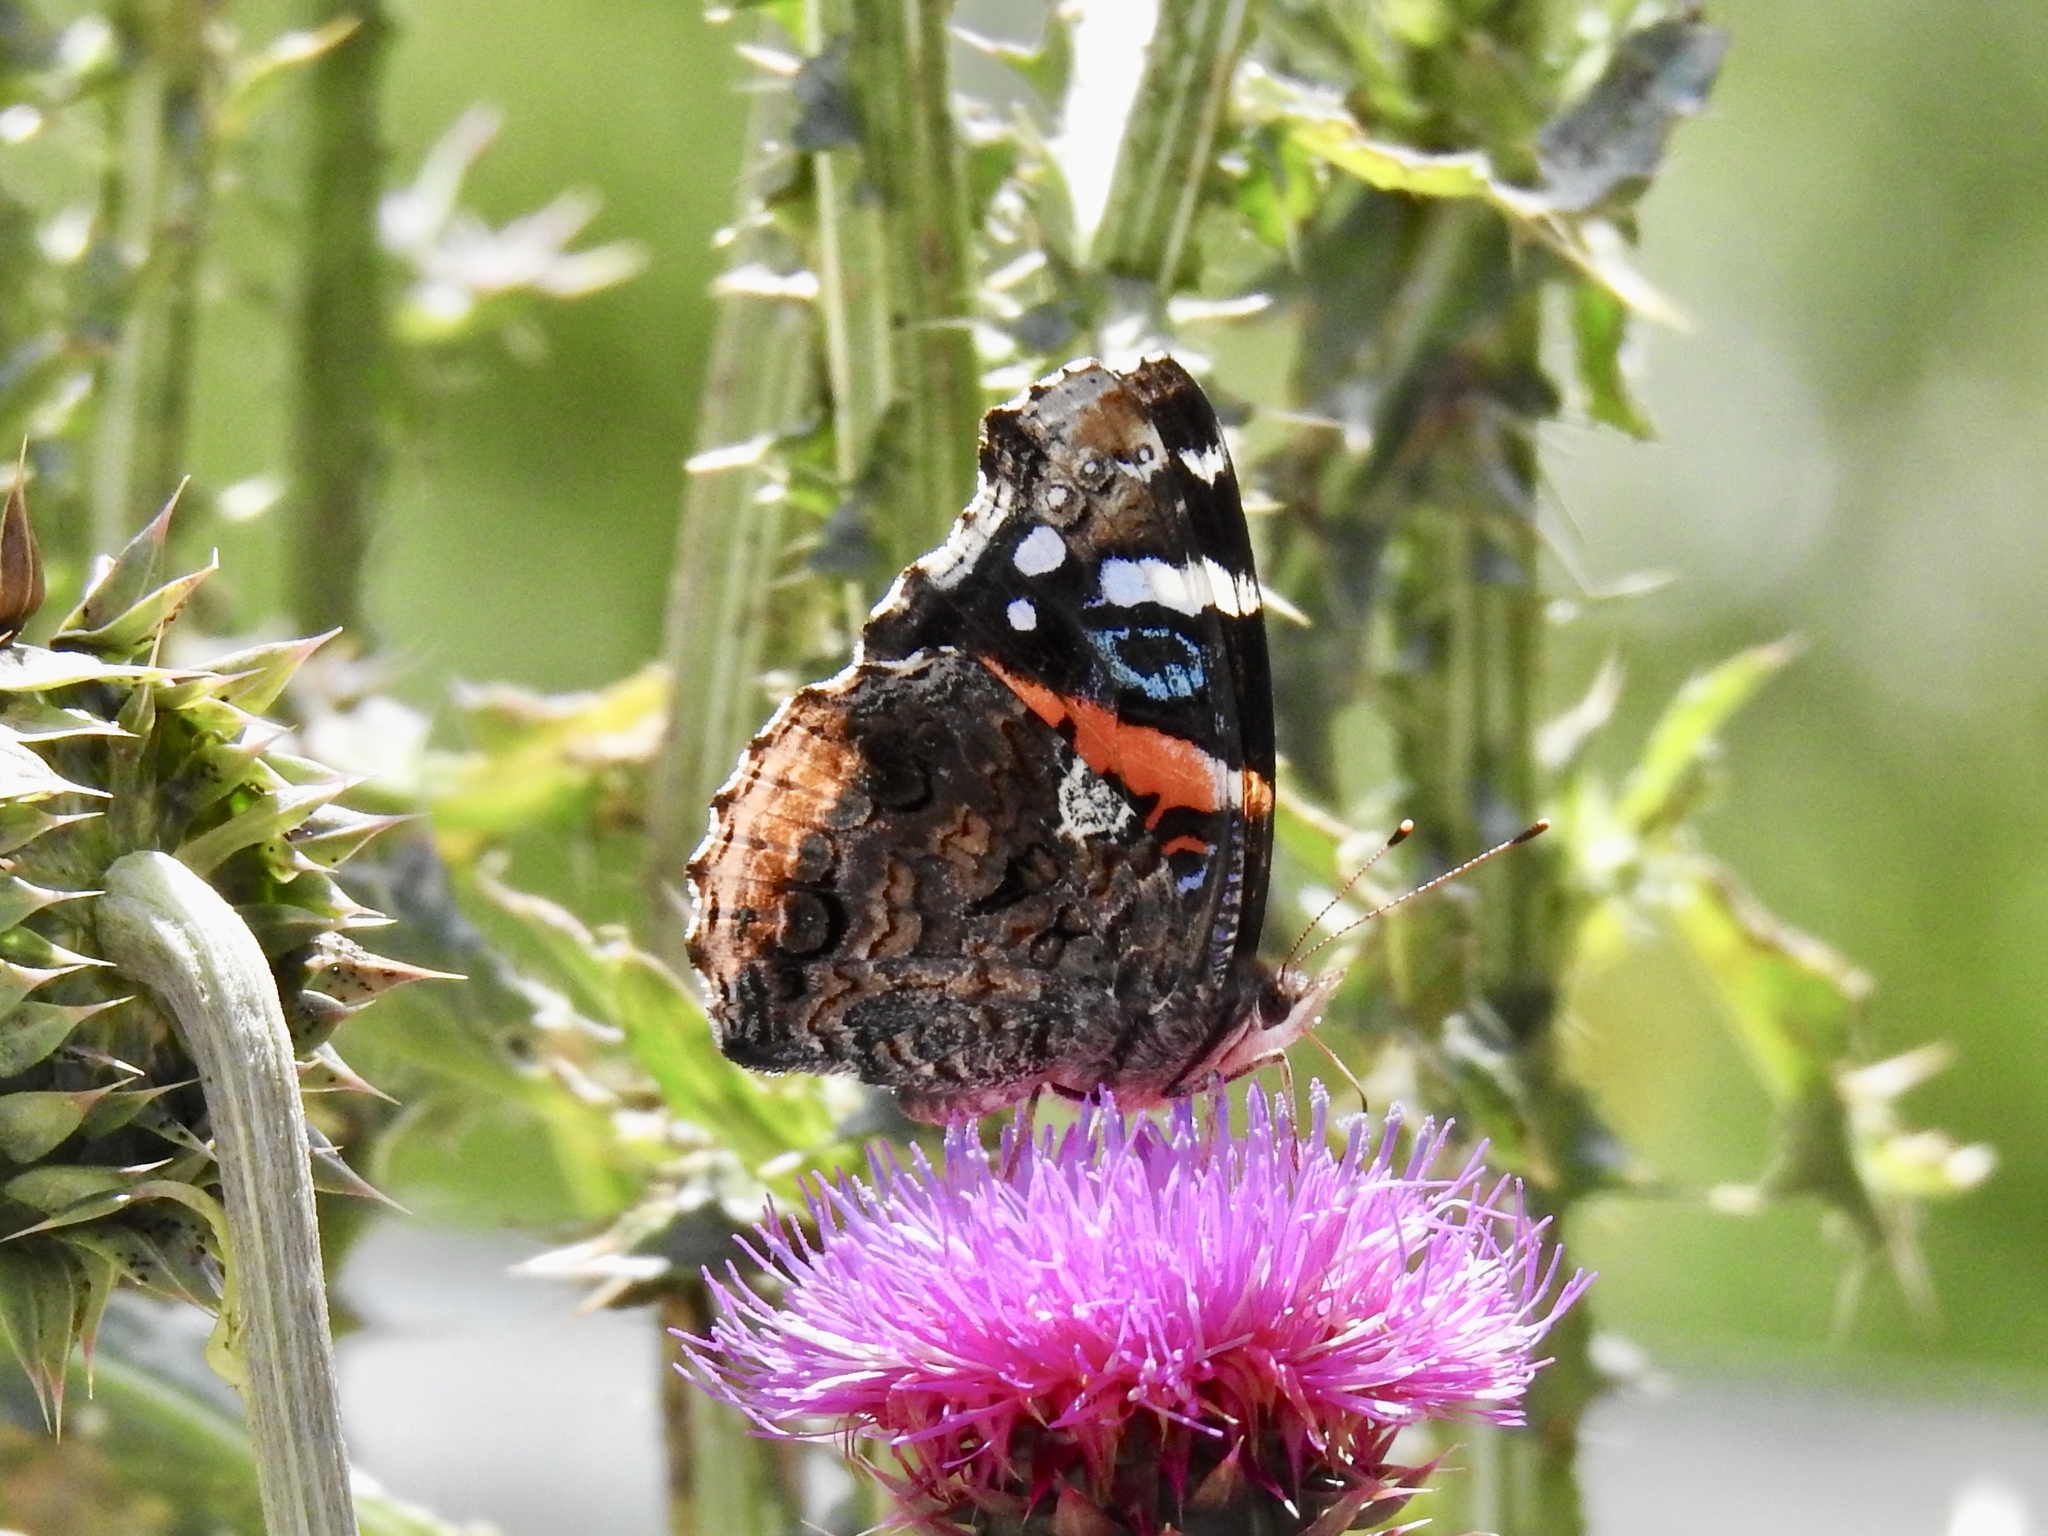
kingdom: Animalia
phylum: Arthropoda
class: Insecta
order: Lepidoptera
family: Nymphalidae
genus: Vanessa
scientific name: Vanessa atalanta
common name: Red admiral
